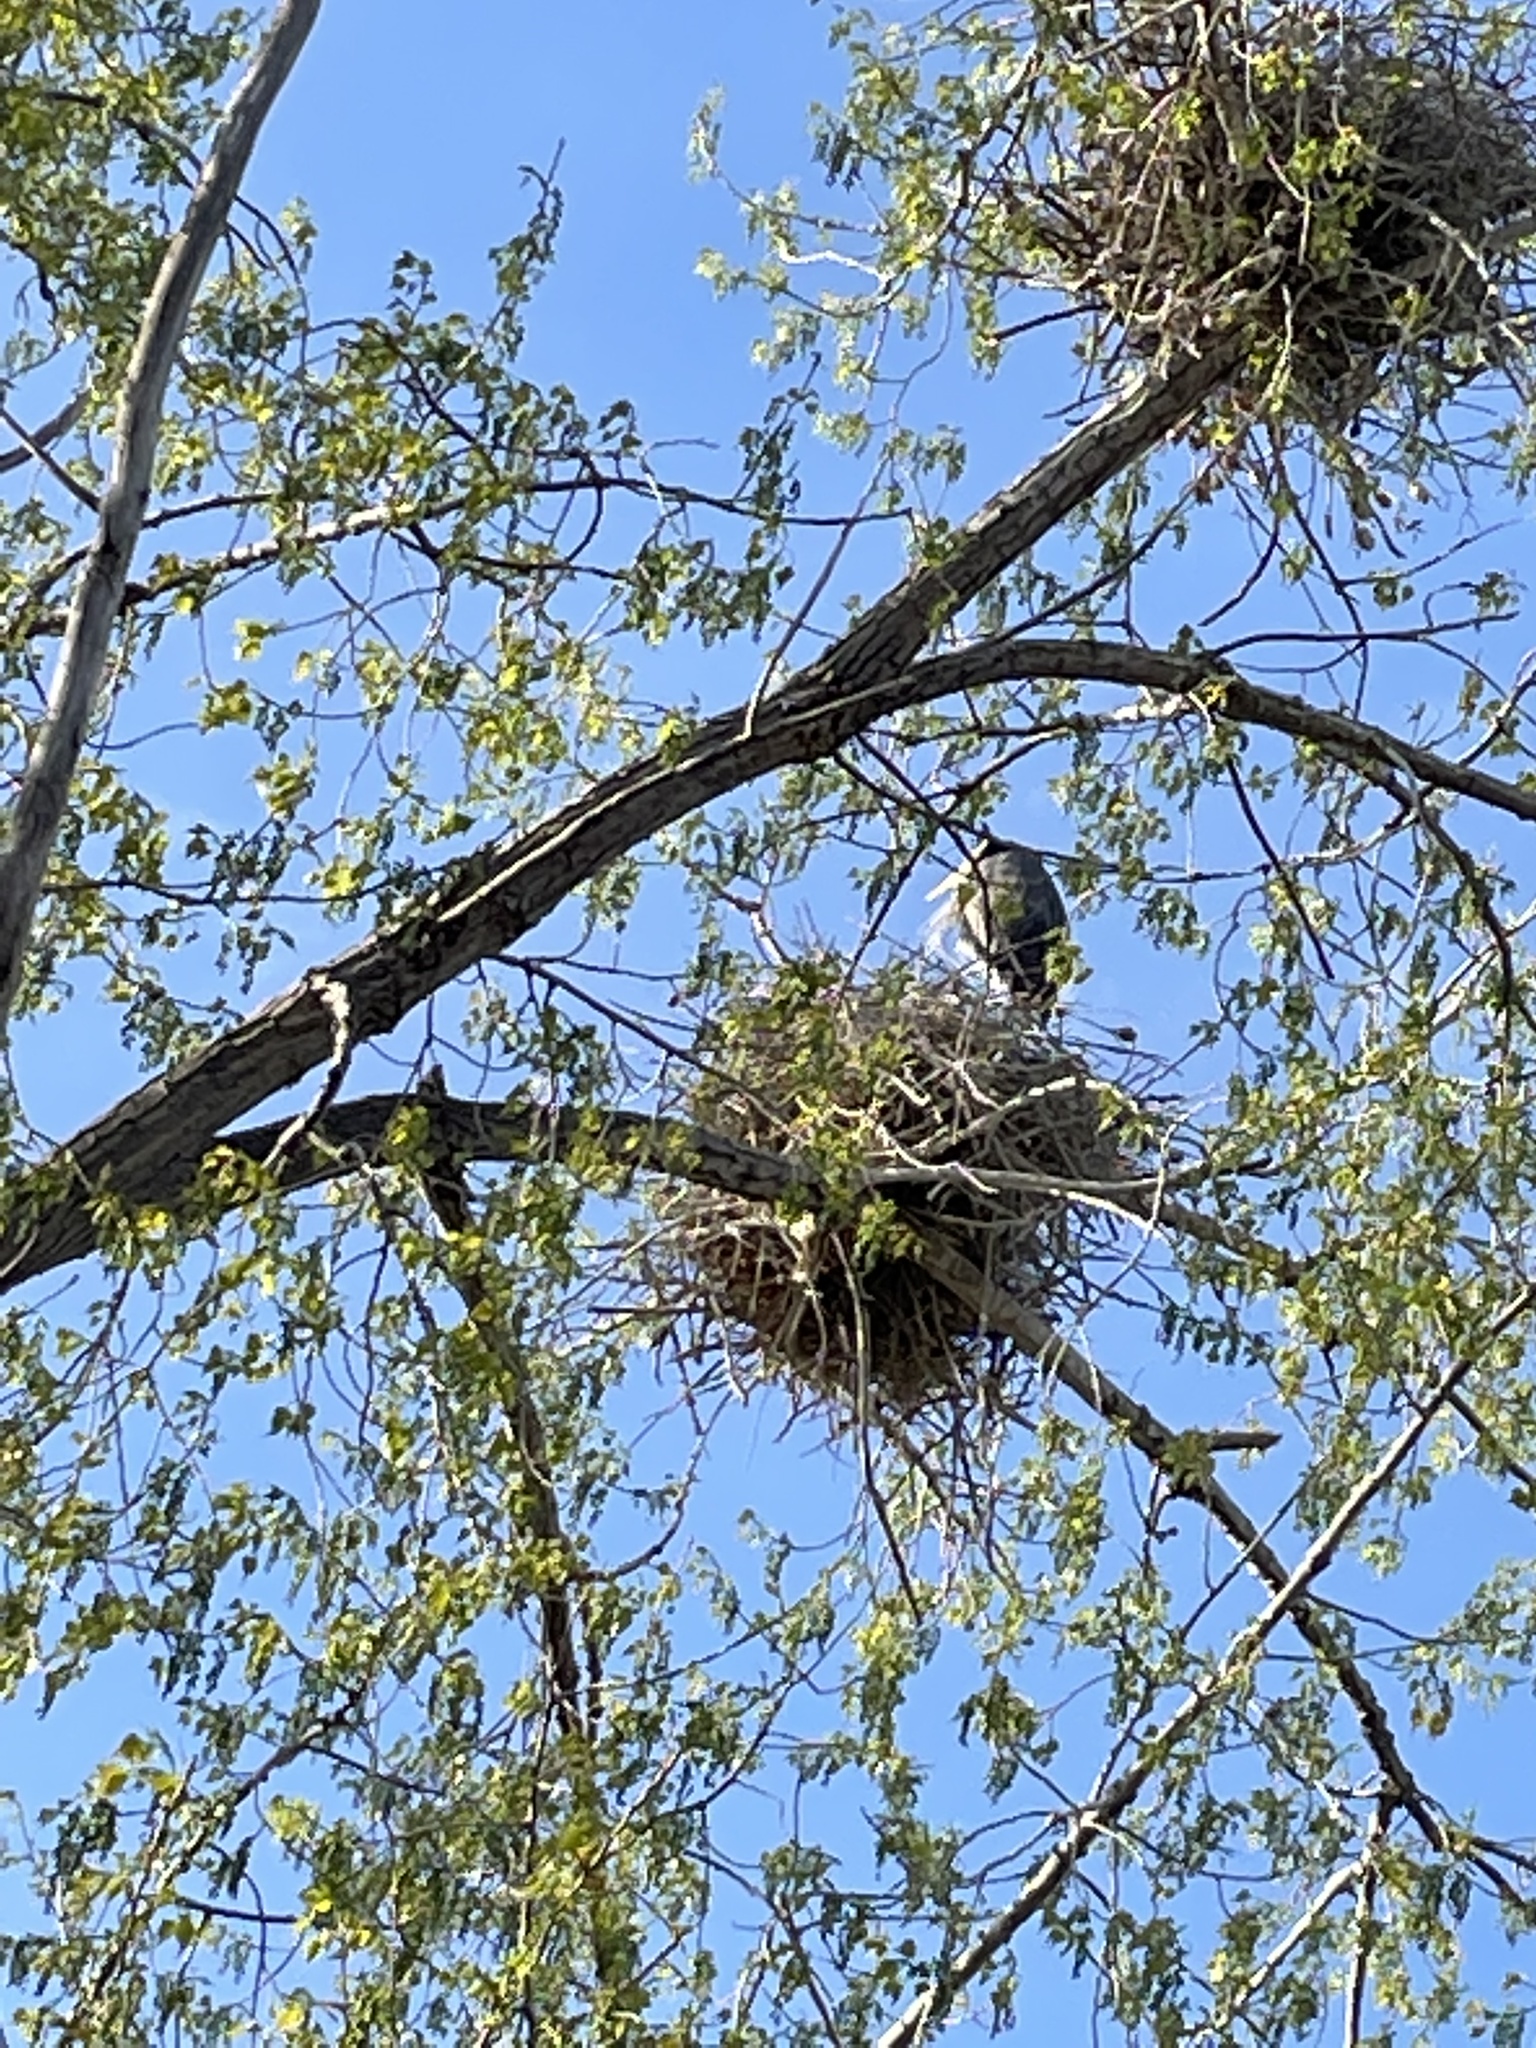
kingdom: Animalia
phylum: Chordata
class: Aves
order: Pelecaniformes
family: Ardeidae
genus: Ardea
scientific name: Ardea herodias
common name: Great blue heron
